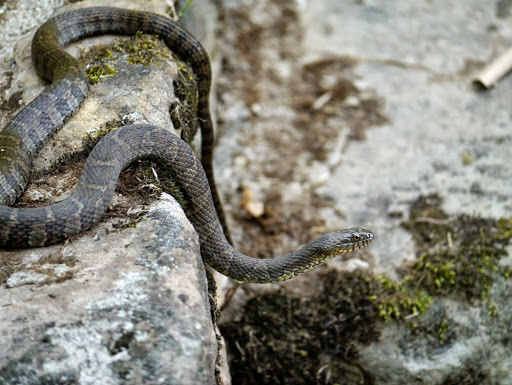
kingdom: Animalia
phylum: Chordata
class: Squamata
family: Colubridae
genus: Nerodia
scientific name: Nerodia sipedon
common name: Northern water snake
